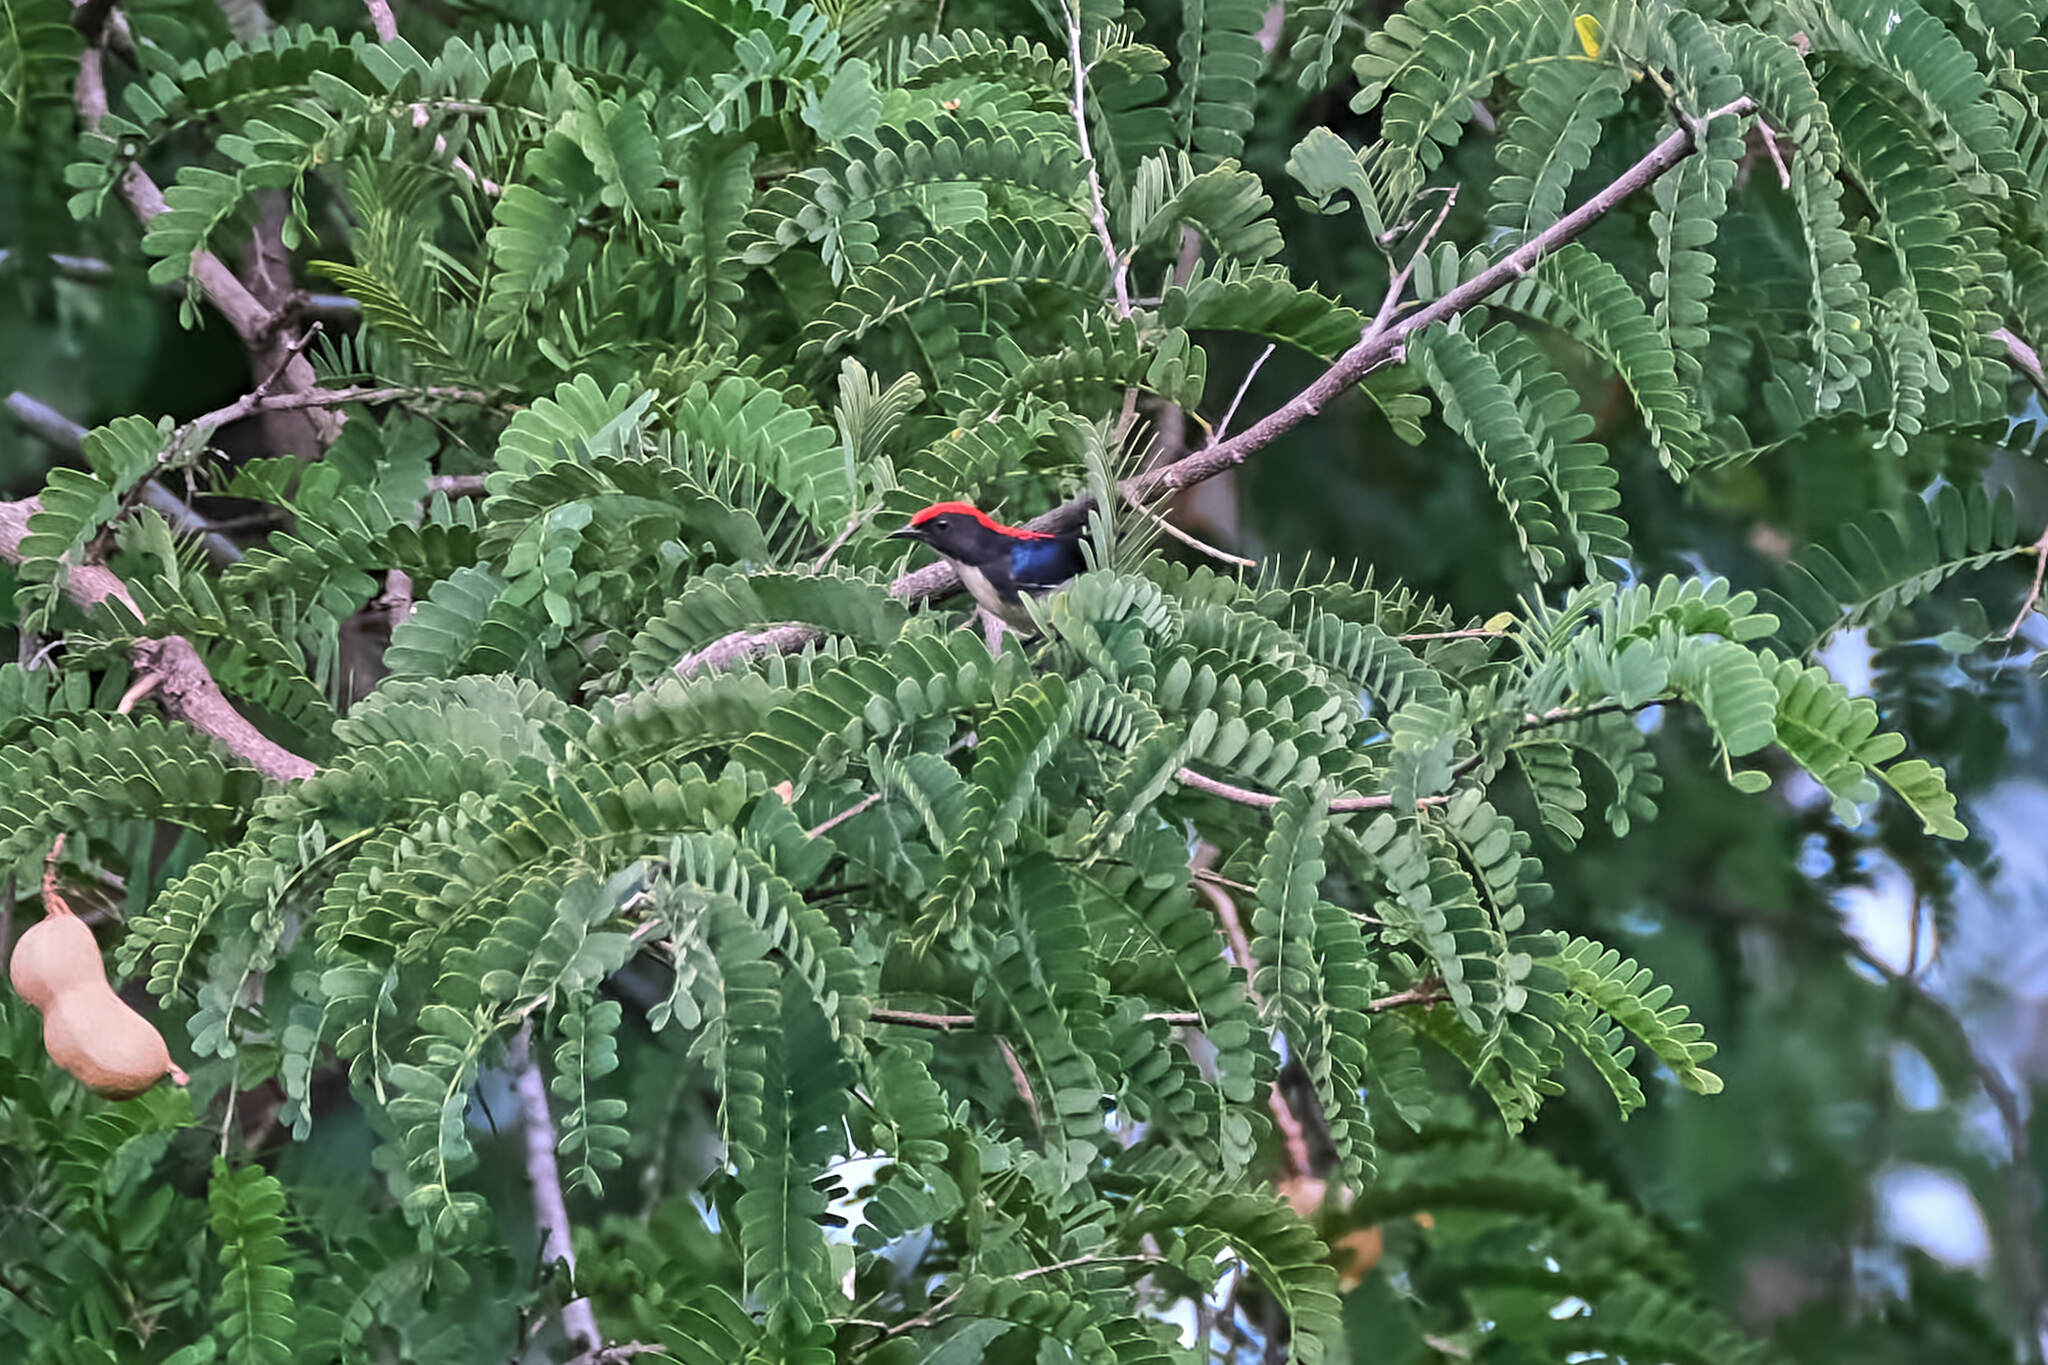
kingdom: Animalia
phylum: Chordata
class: Aves
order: Passeriformes
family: Dicaeidae
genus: Dicaeum
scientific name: Dicaeum cruentatum
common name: Scarlet-backed flowerpecker
